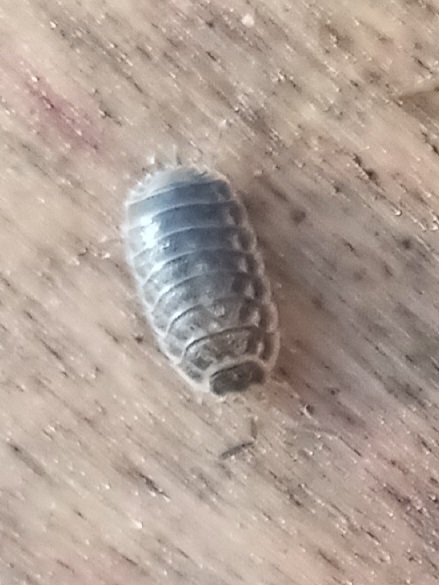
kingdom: Animalia
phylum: Arthropoda
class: Malacostraca
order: Isopoda
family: Trachelipodidae
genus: Trachelipus
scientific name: Trachelipus rathkii
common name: Isopod
